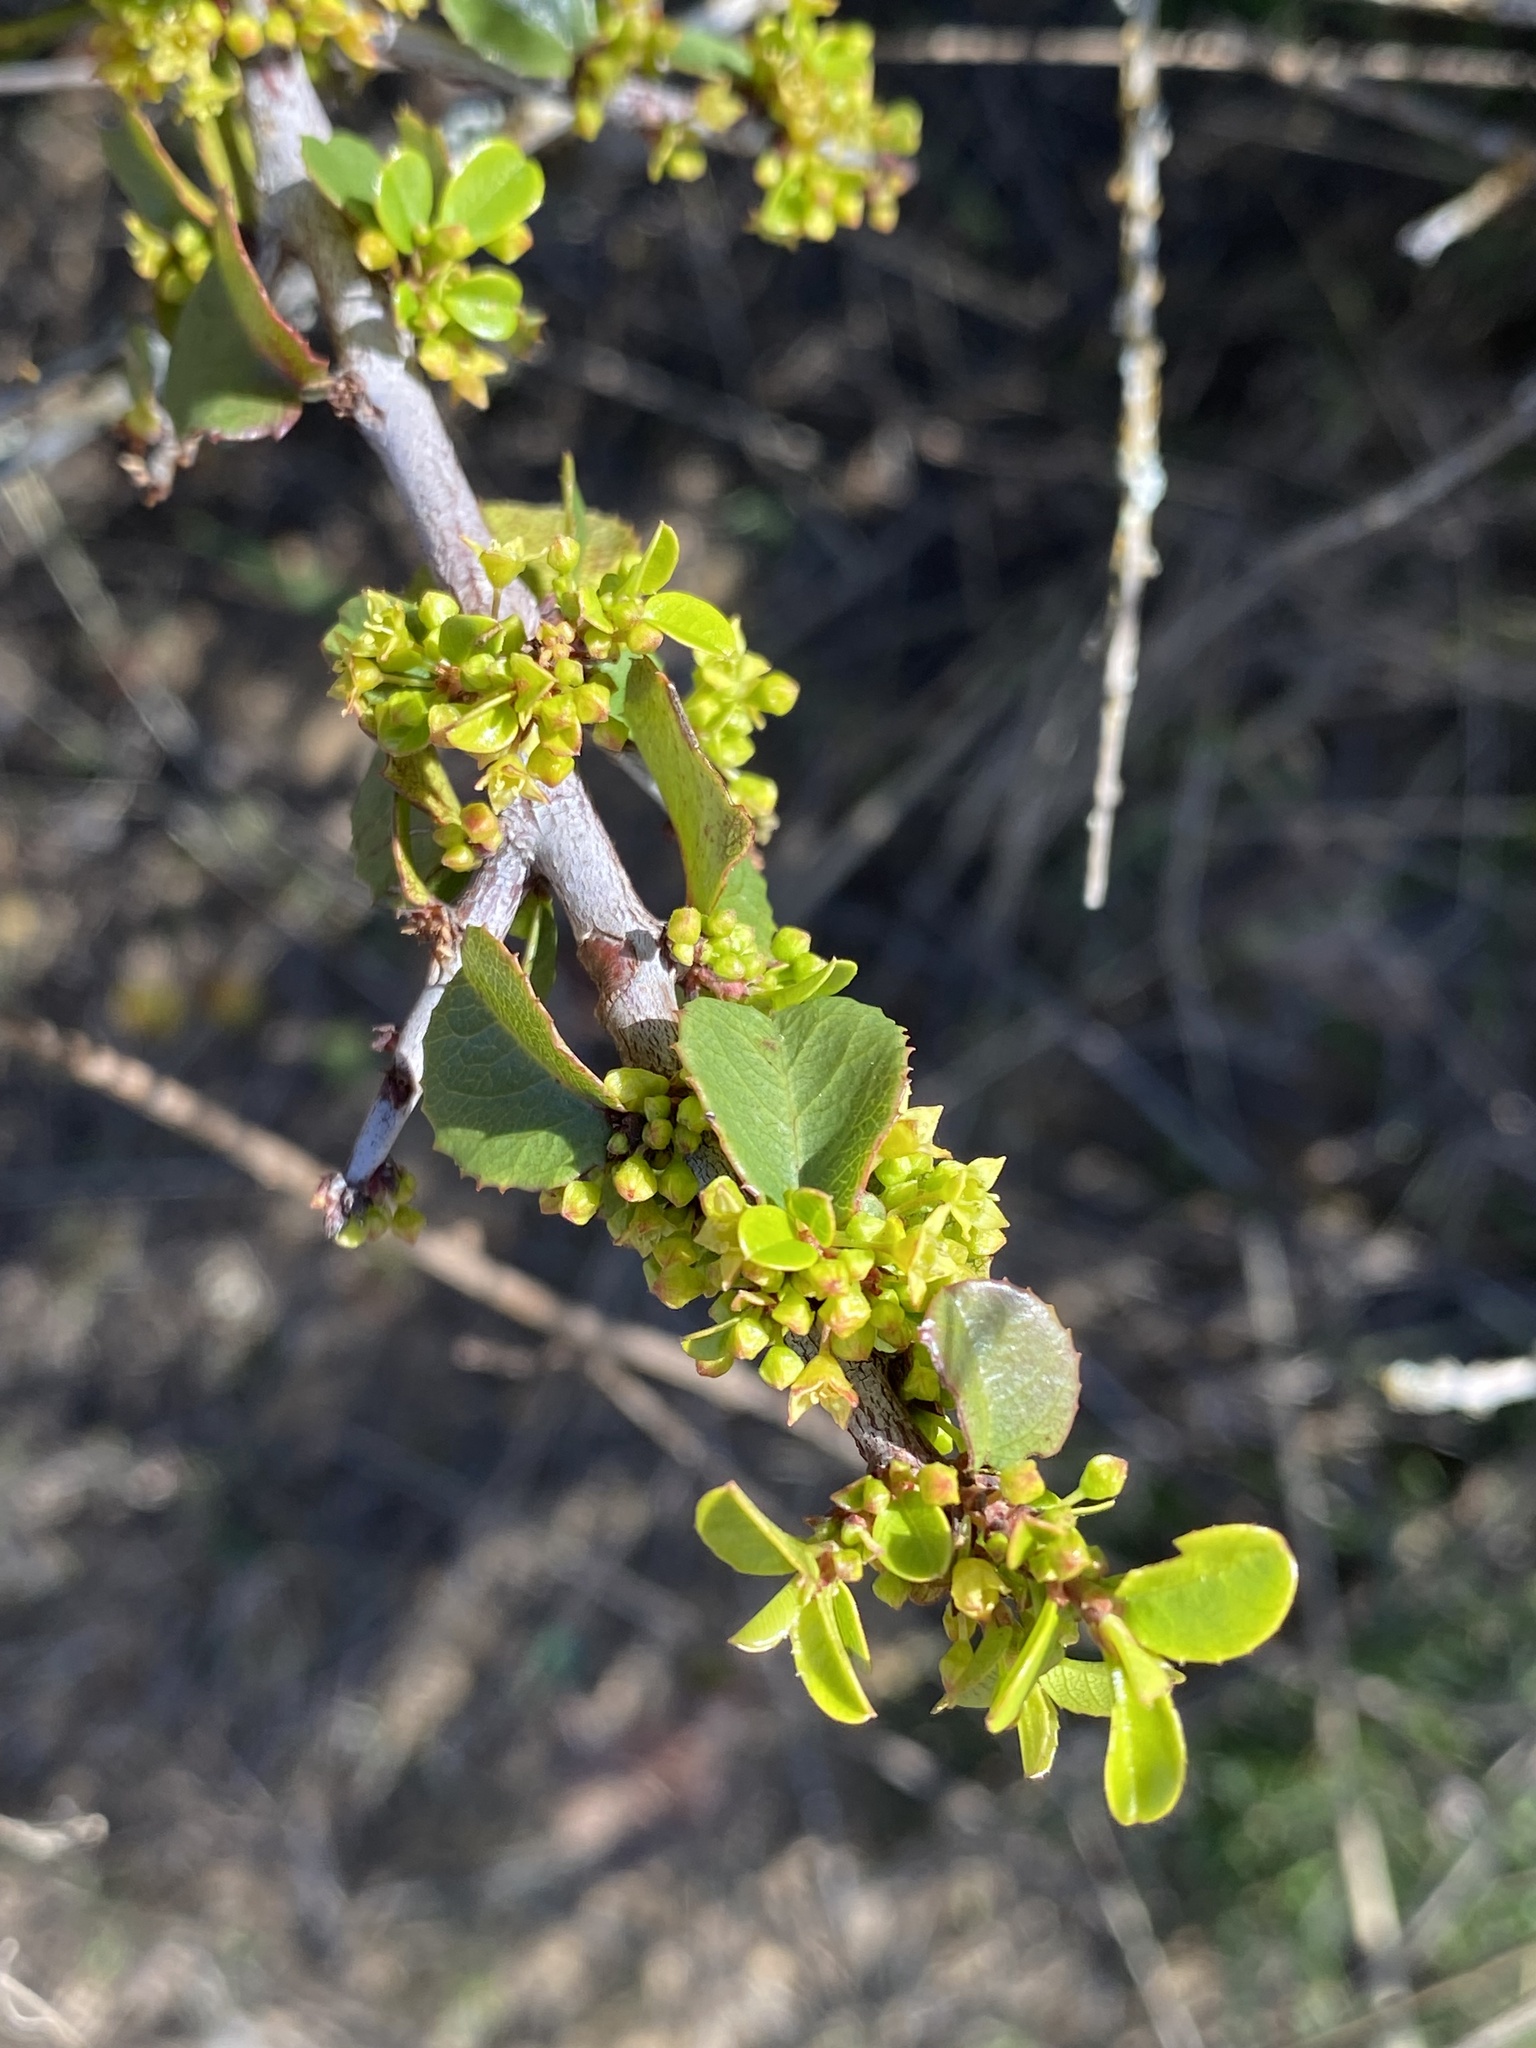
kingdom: Plantae
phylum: Tracheophyta
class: Magnoliopsida
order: Rosales
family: Rhamnaceae
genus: Endotropis
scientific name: Endotropis crocea
